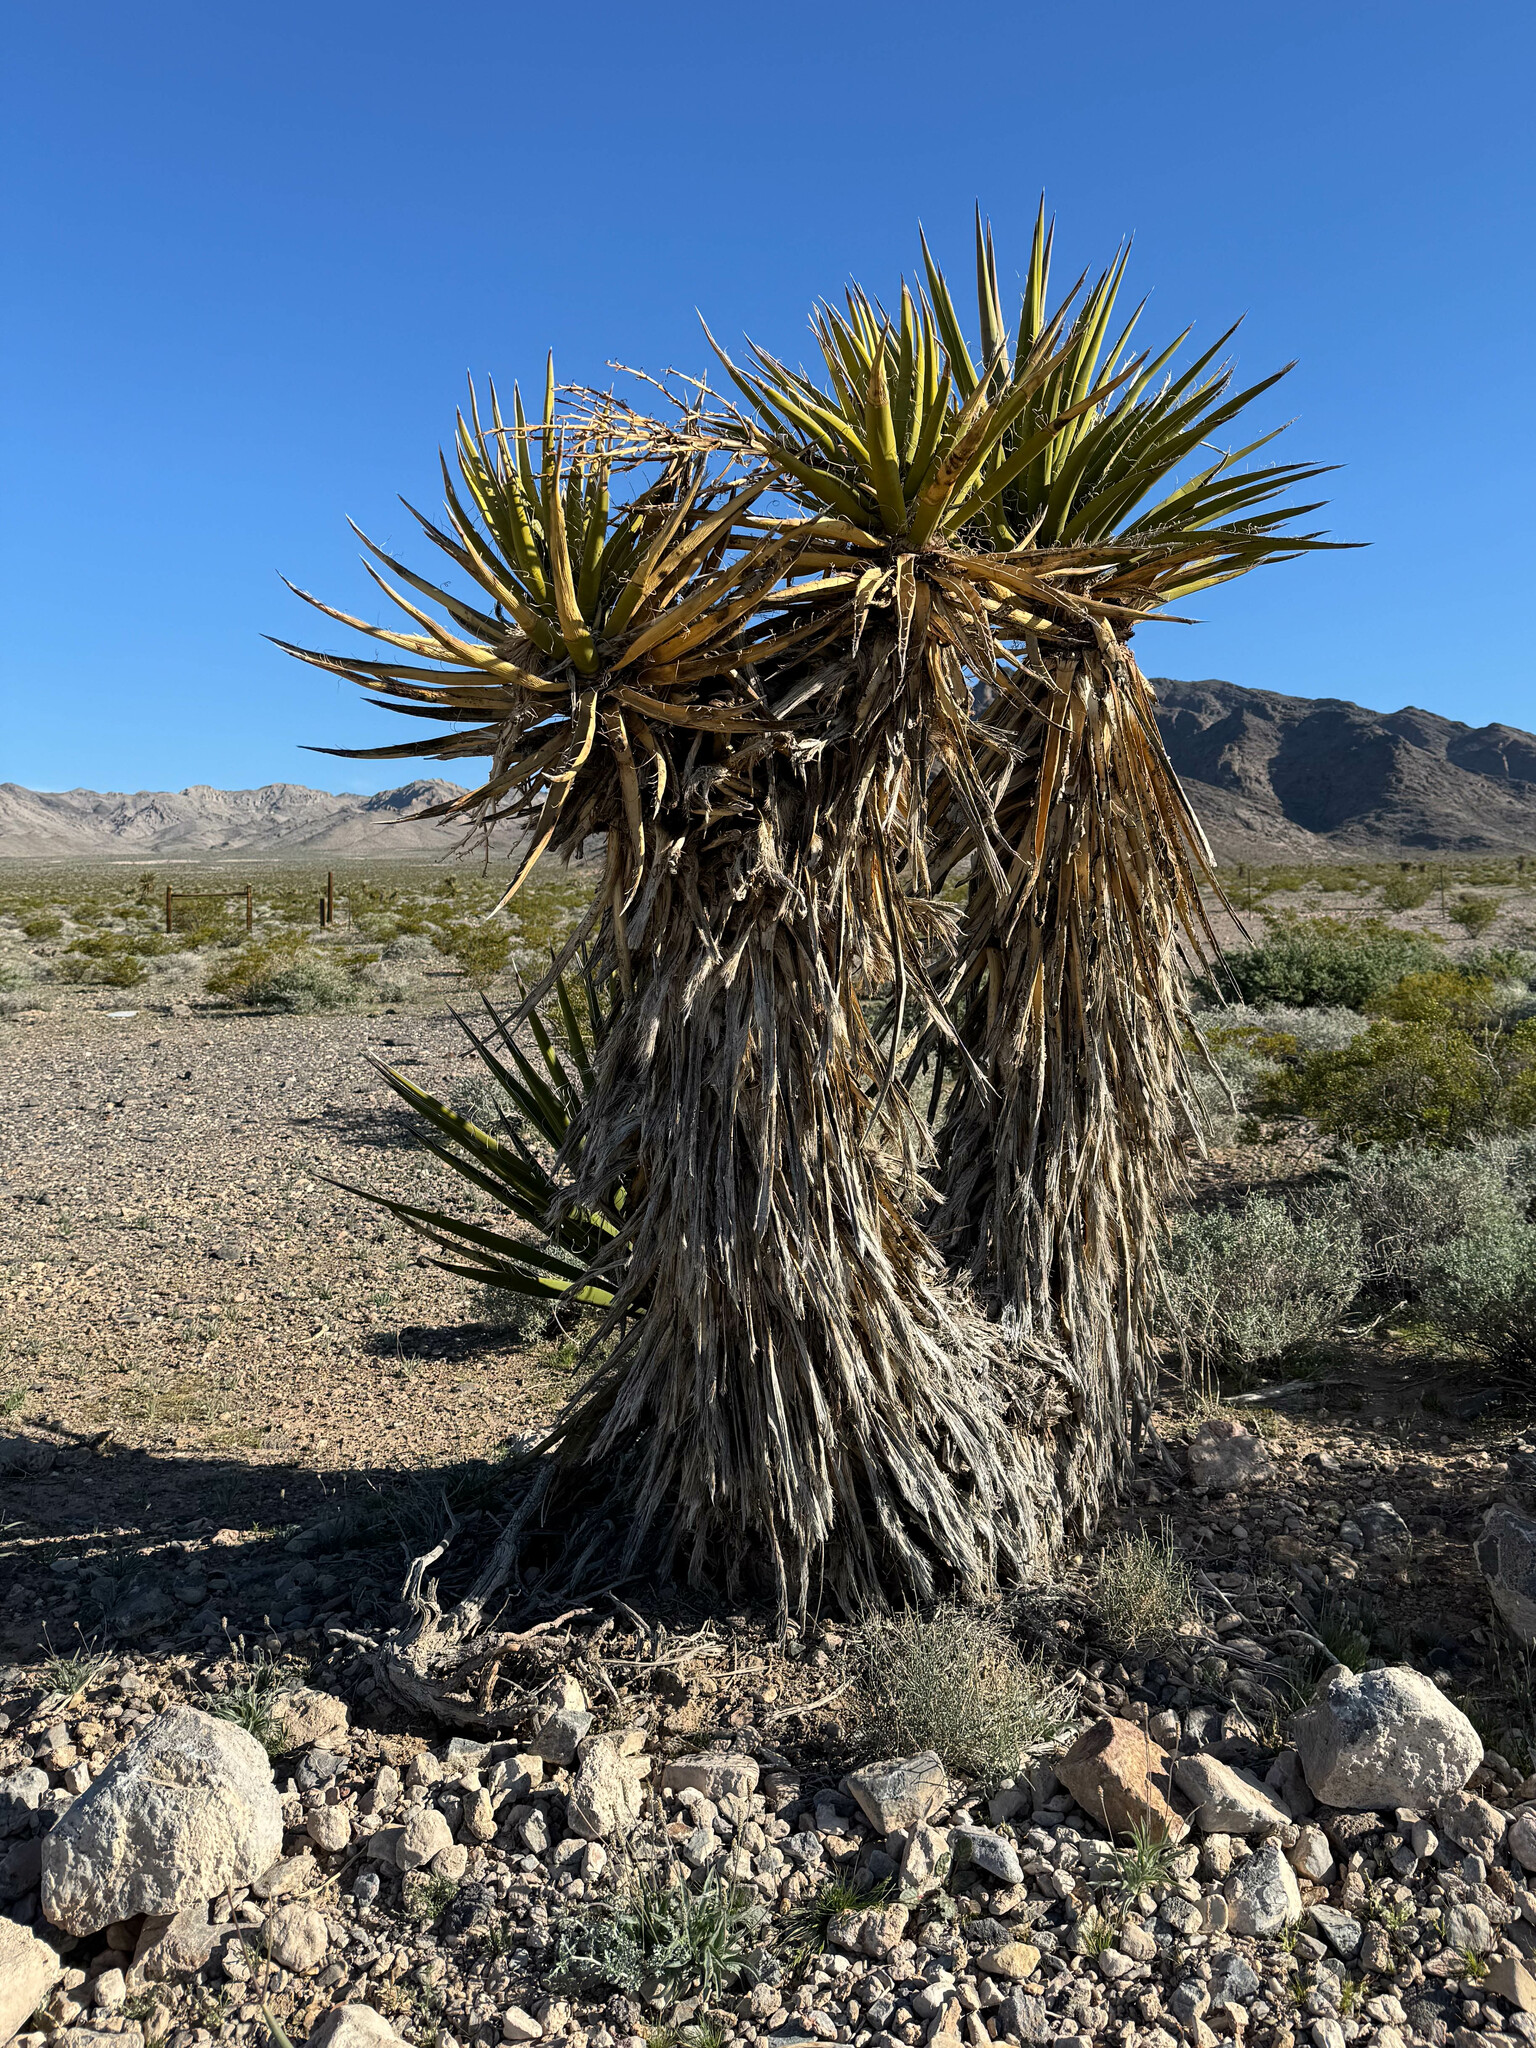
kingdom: Plantae
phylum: Tracheophyta
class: Liliopsida
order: Asparagales
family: Asparagaceae
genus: Yucca
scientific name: Yucca schidigera
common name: Mojave yucca
